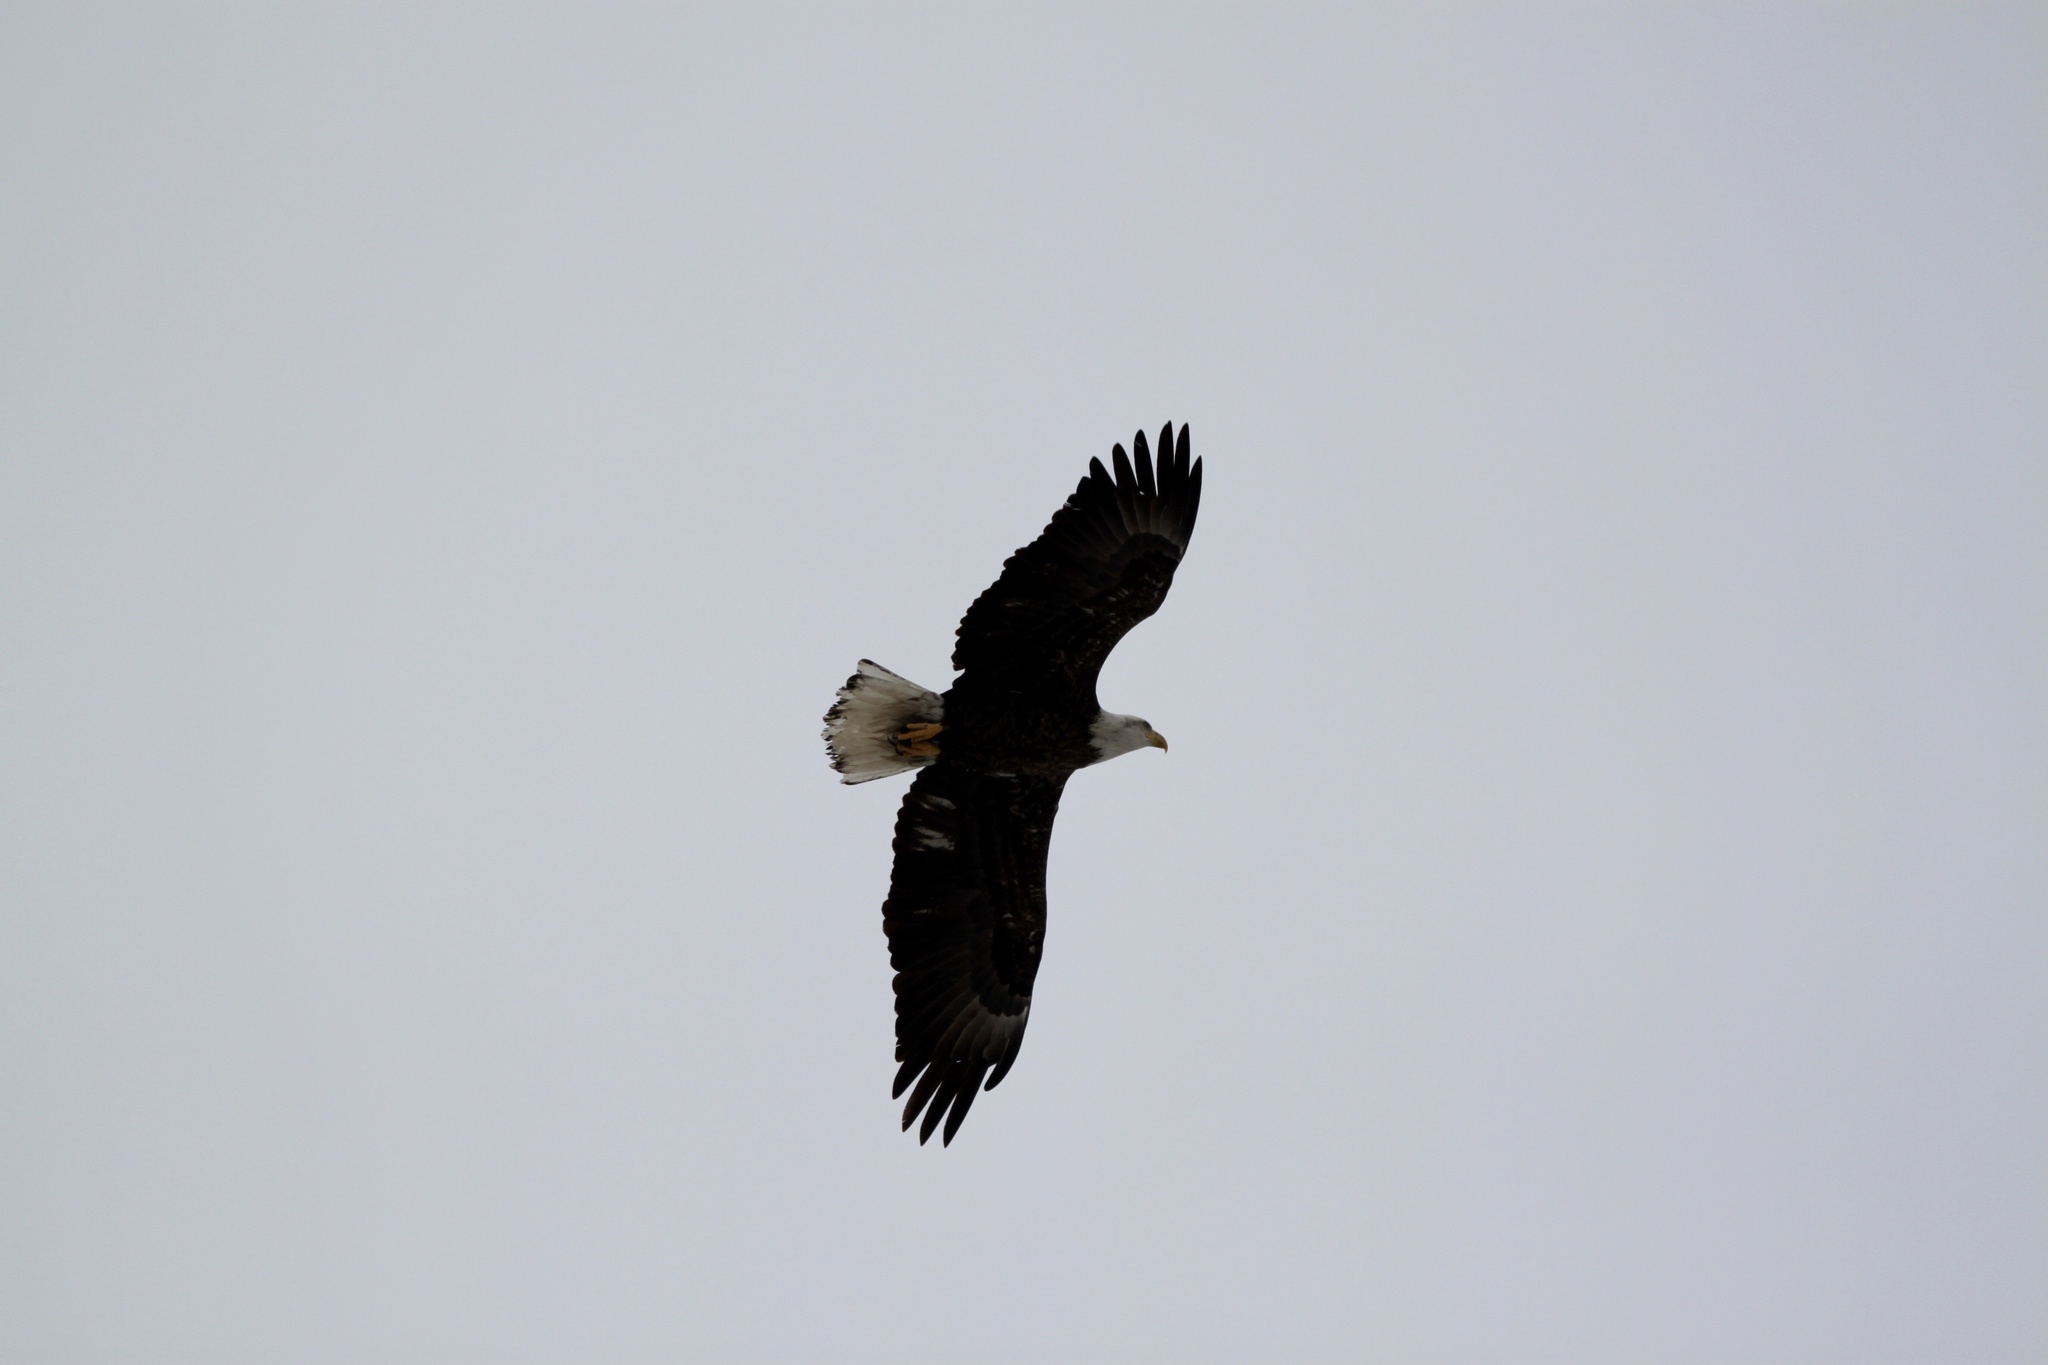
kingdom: Animalia
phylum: Chordata
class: Aves
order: Accipitriformes
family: Accipitridae
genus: Haliaeetus
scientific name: Haliaeetus leucocephalus
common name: Bald eagle
